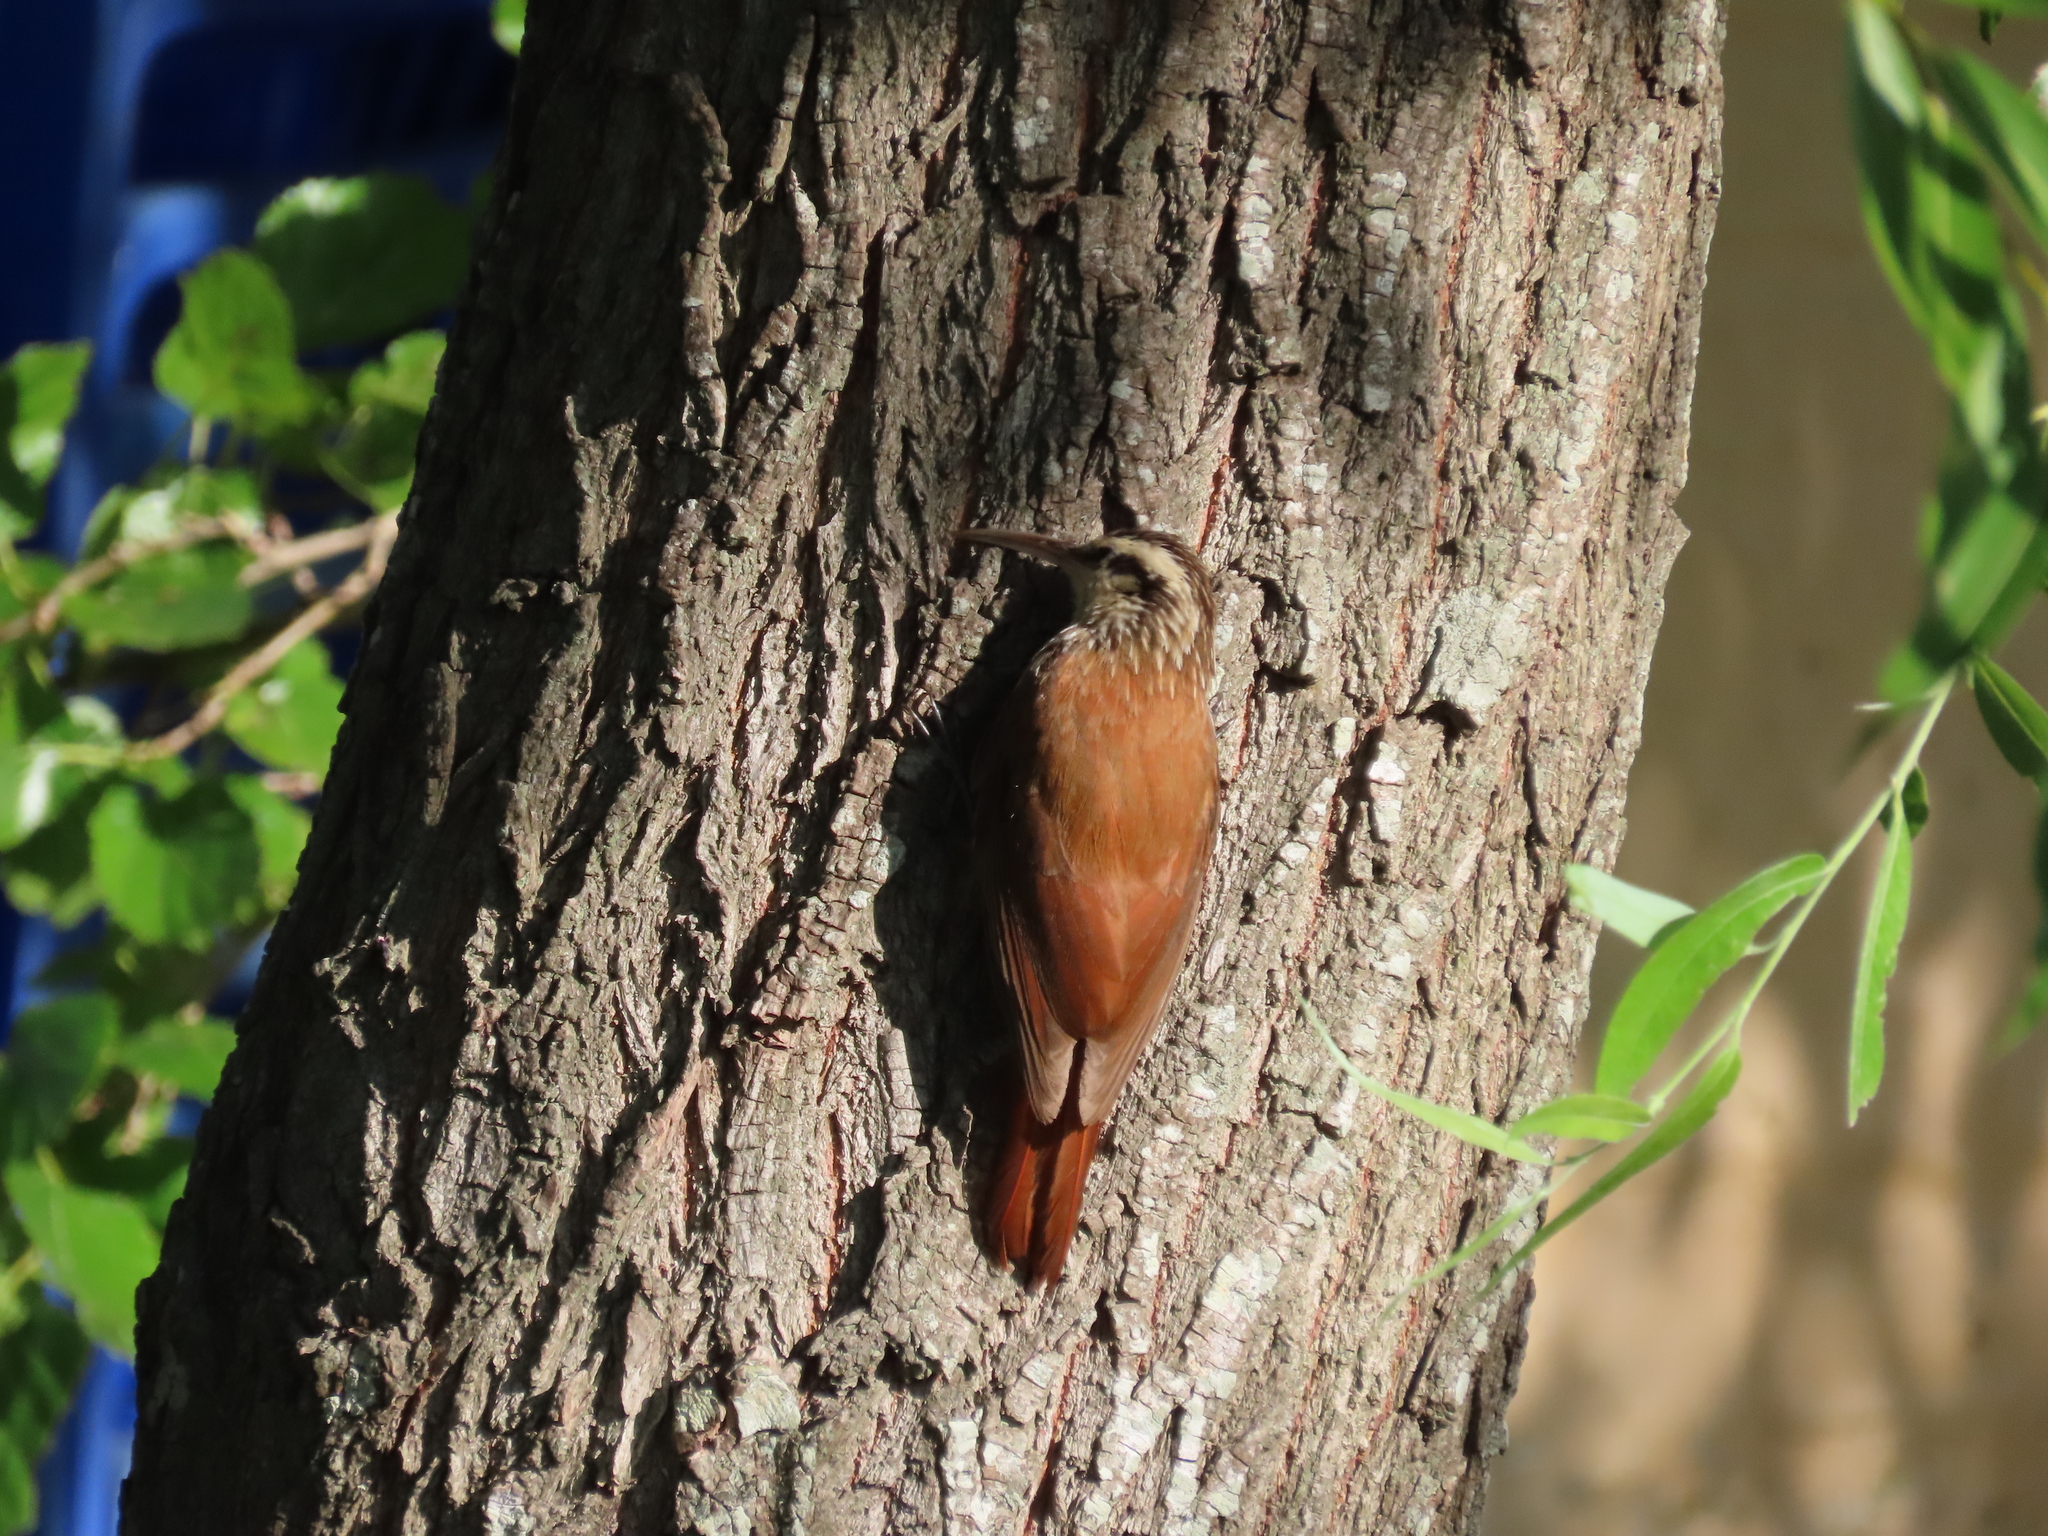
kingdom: Animalia
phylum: Chordata
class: Aves
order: Passeriformes
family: Furnariidae
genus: Lepidocolaptes
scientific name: Lepidocolaptes angustirostris
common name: Narrow-billed woodcreeper
